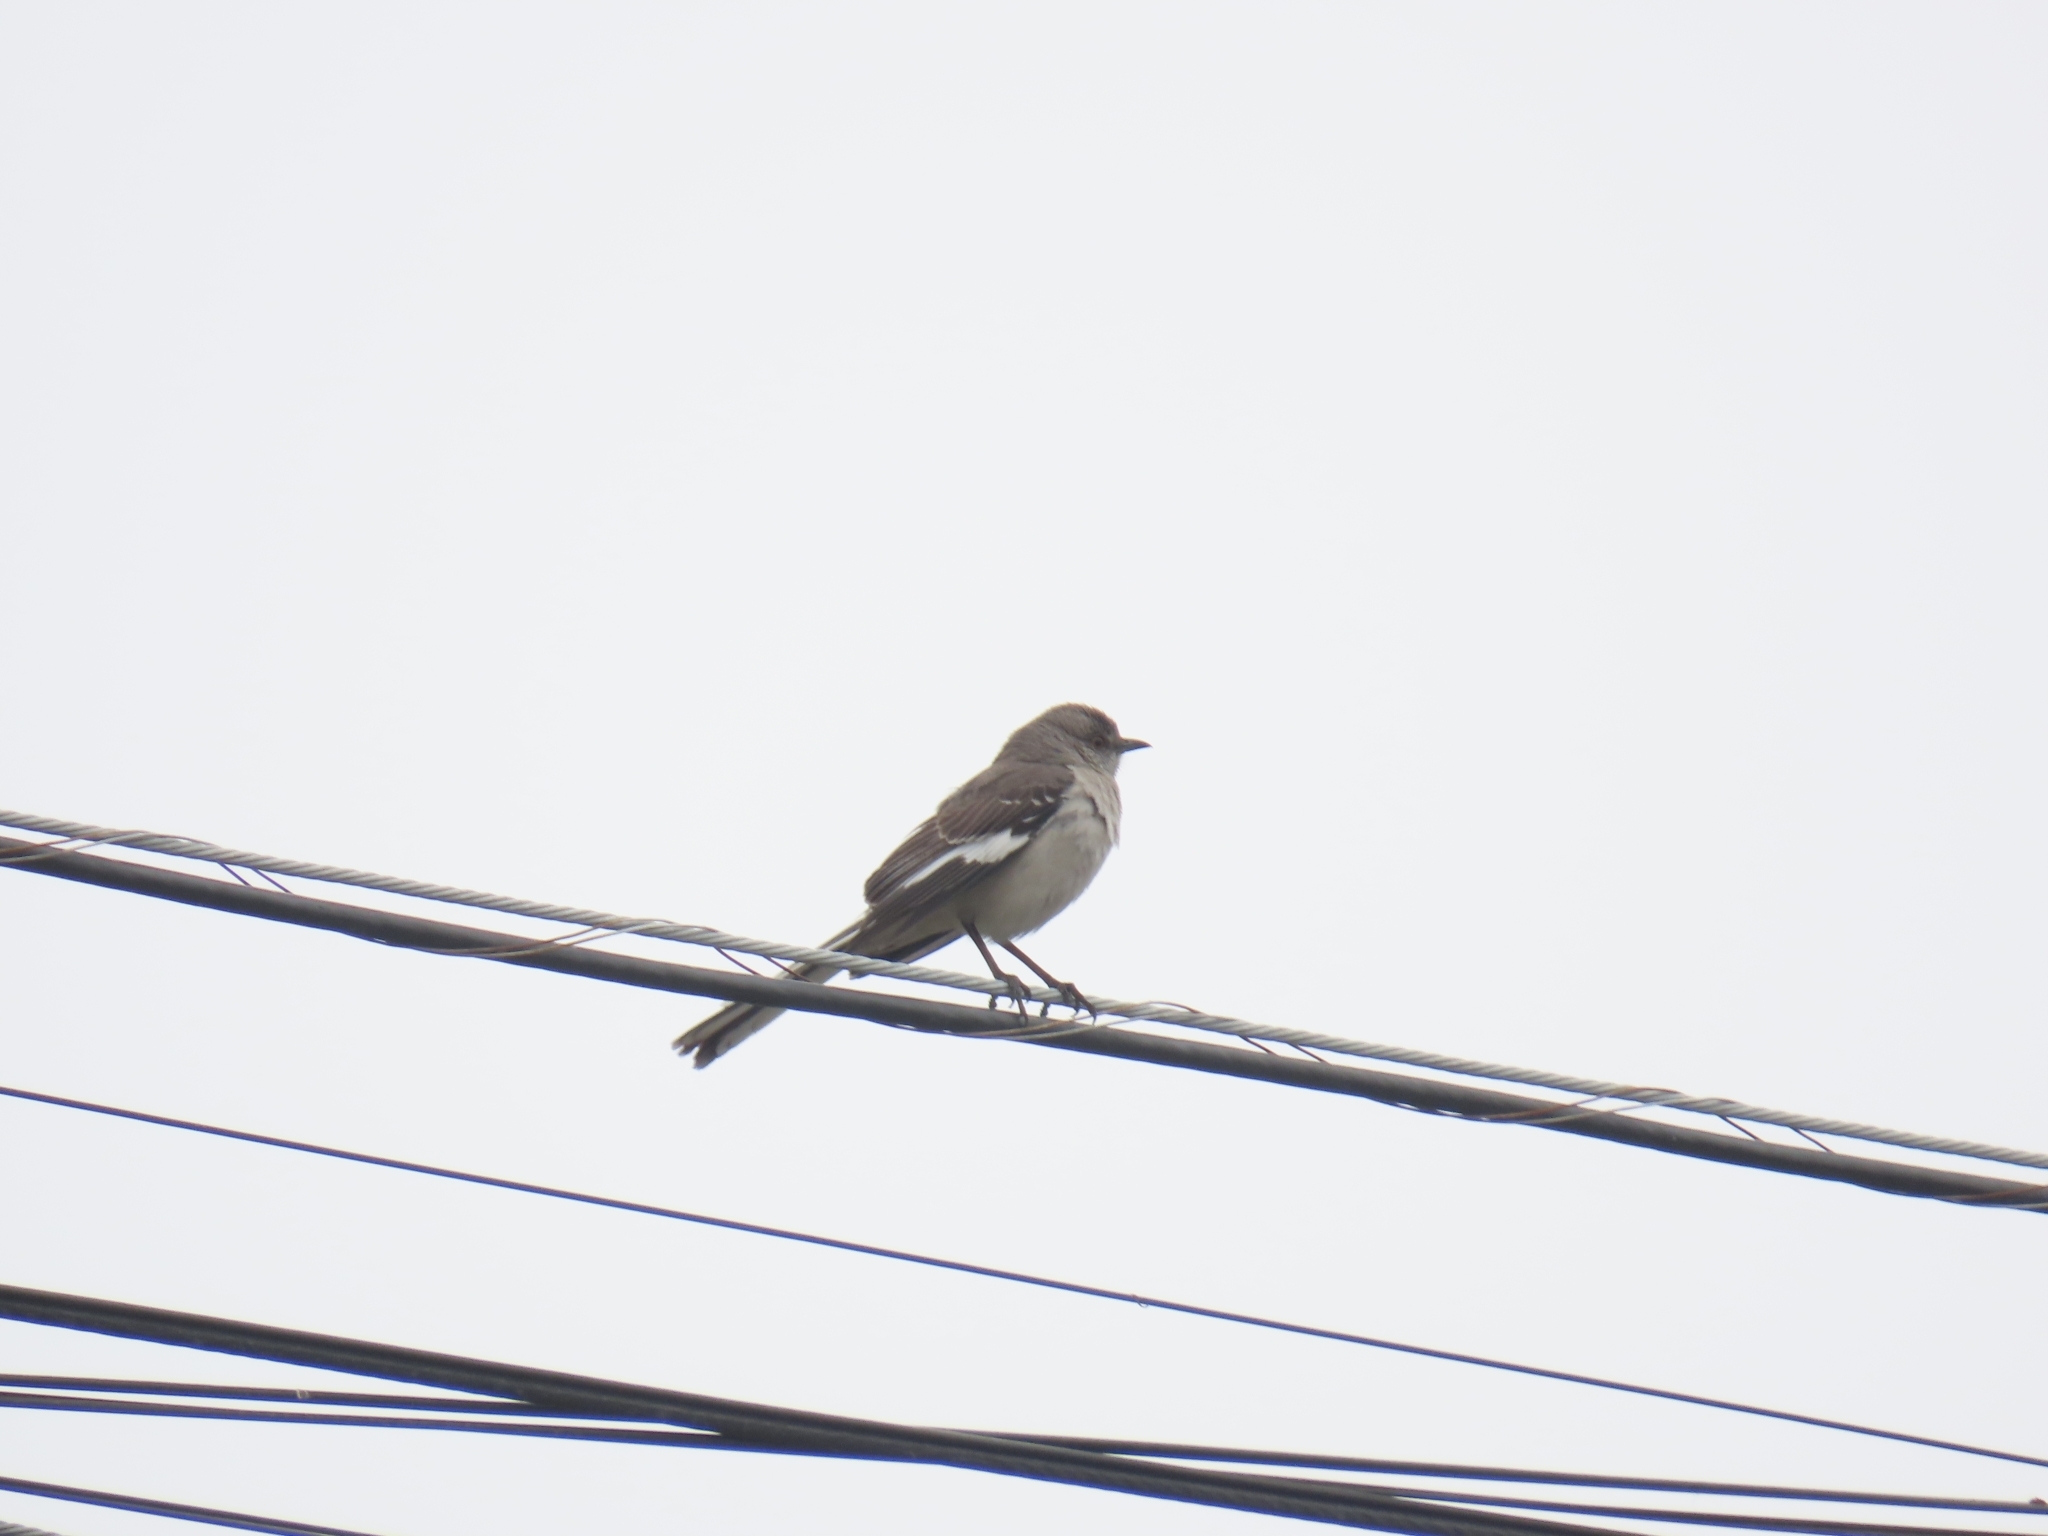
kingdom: Animalia
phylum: Chordata
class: Aves
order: Passeriformes
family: Mimidae
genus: Mimus
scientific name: Mimus polyglottos
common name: Northern mockingbird
